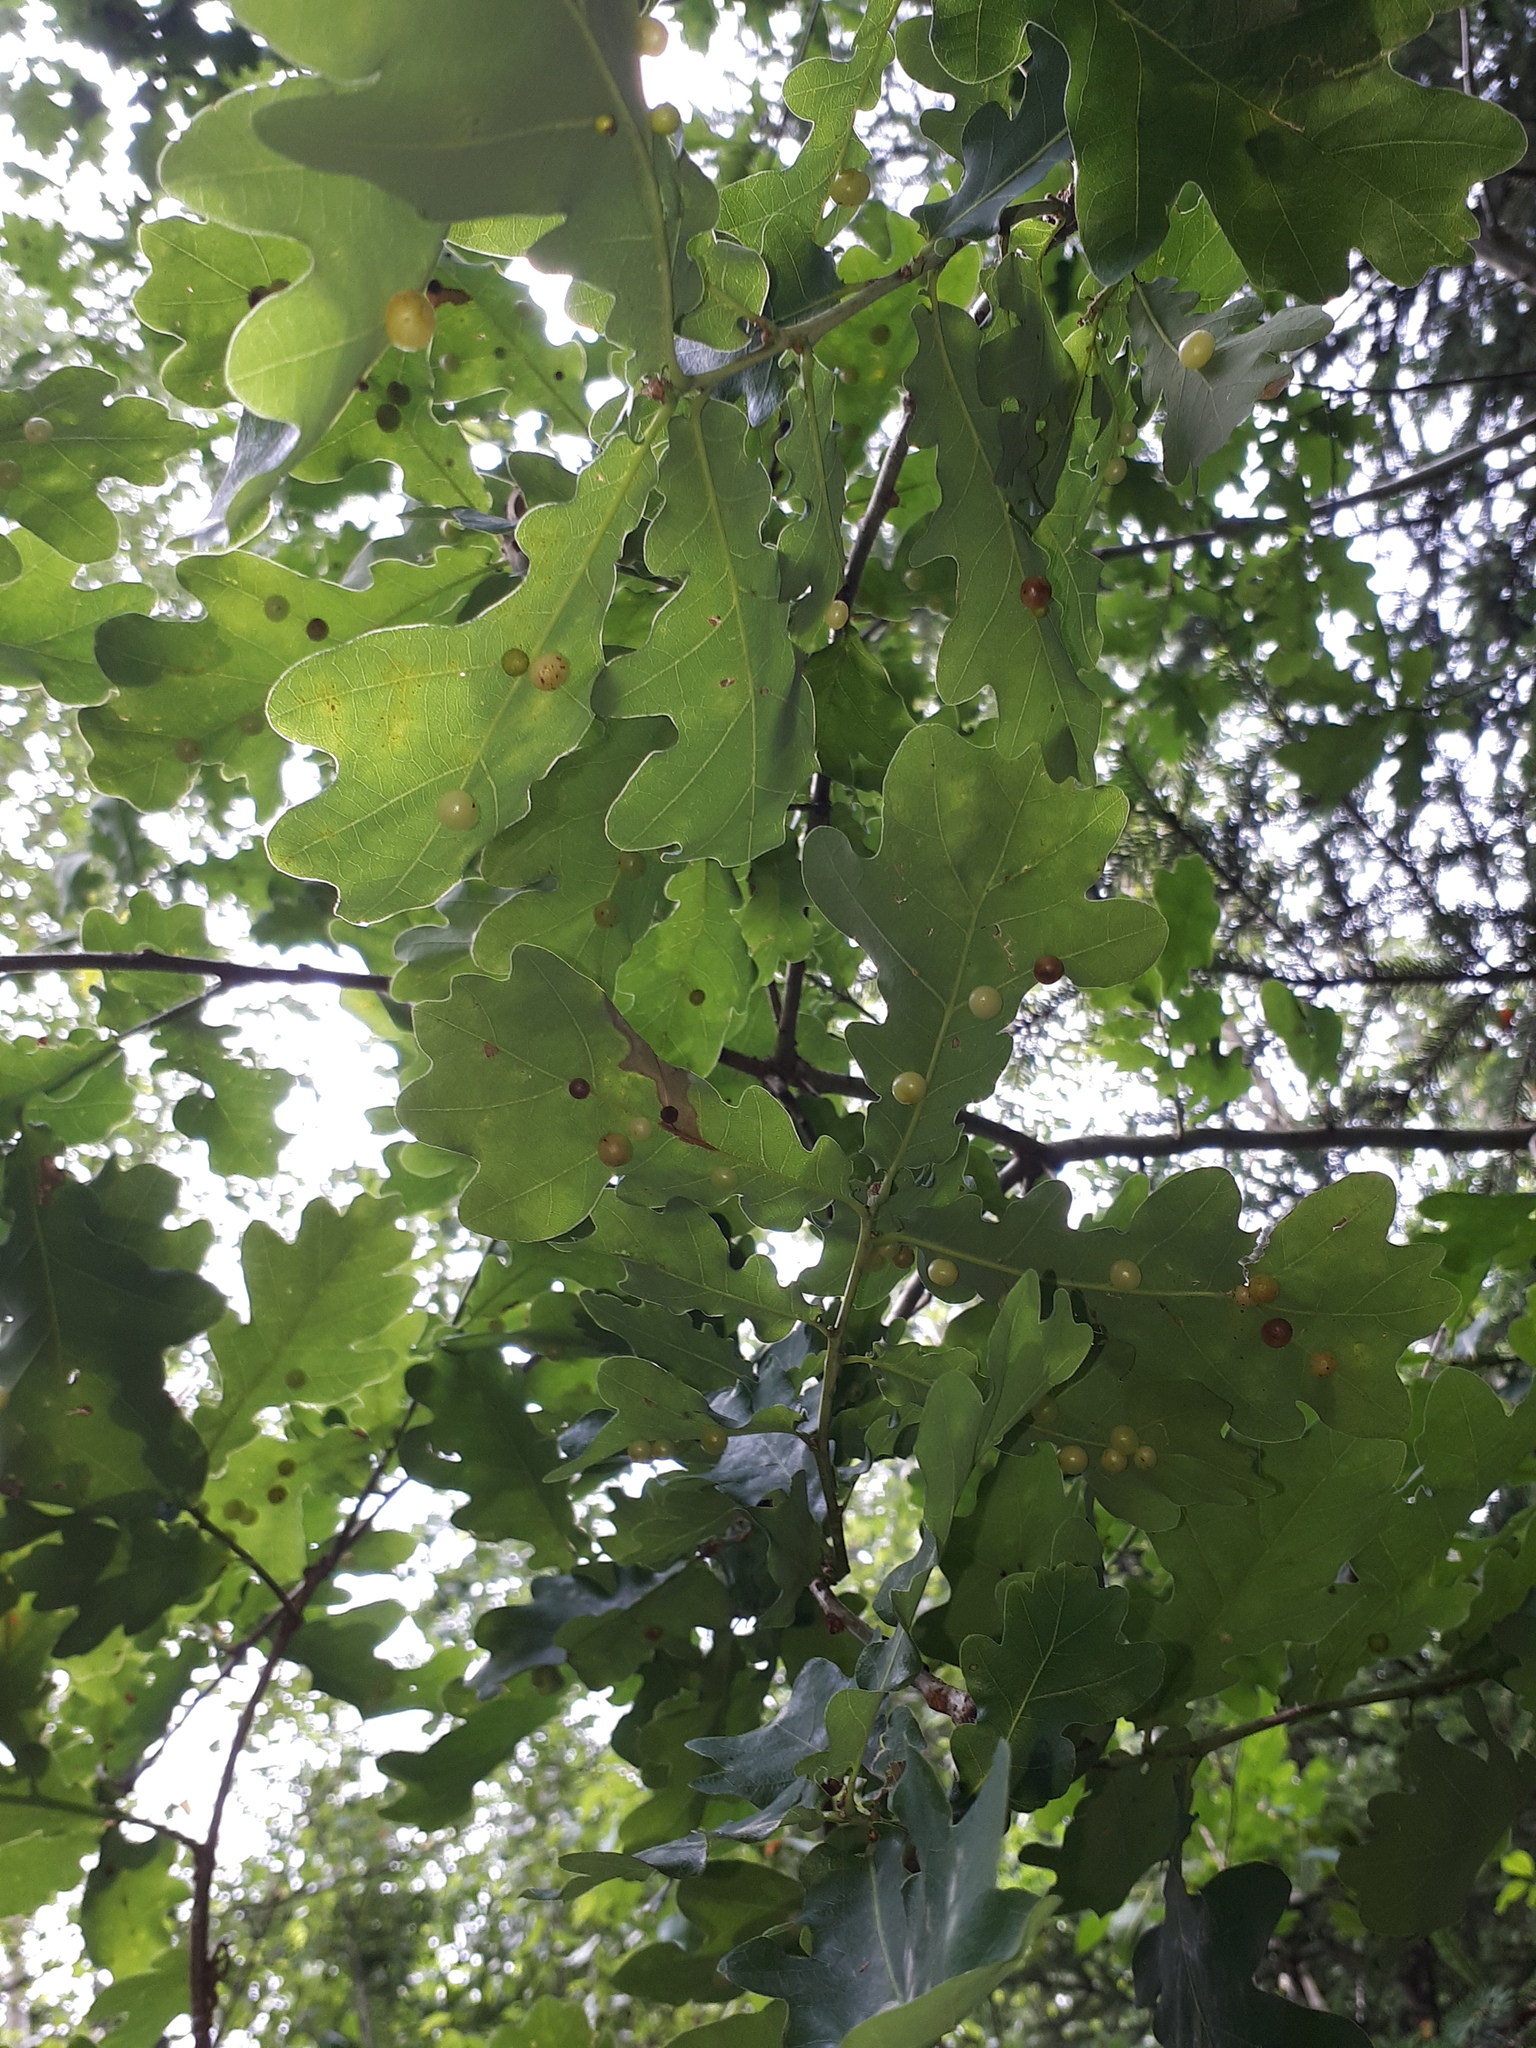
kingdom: Animalia
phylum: Arthropoda
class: Insecta
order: Hymenoptera
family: Cynipidae
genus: Cynips
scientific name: Cynips divisa
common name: Red currant gall
